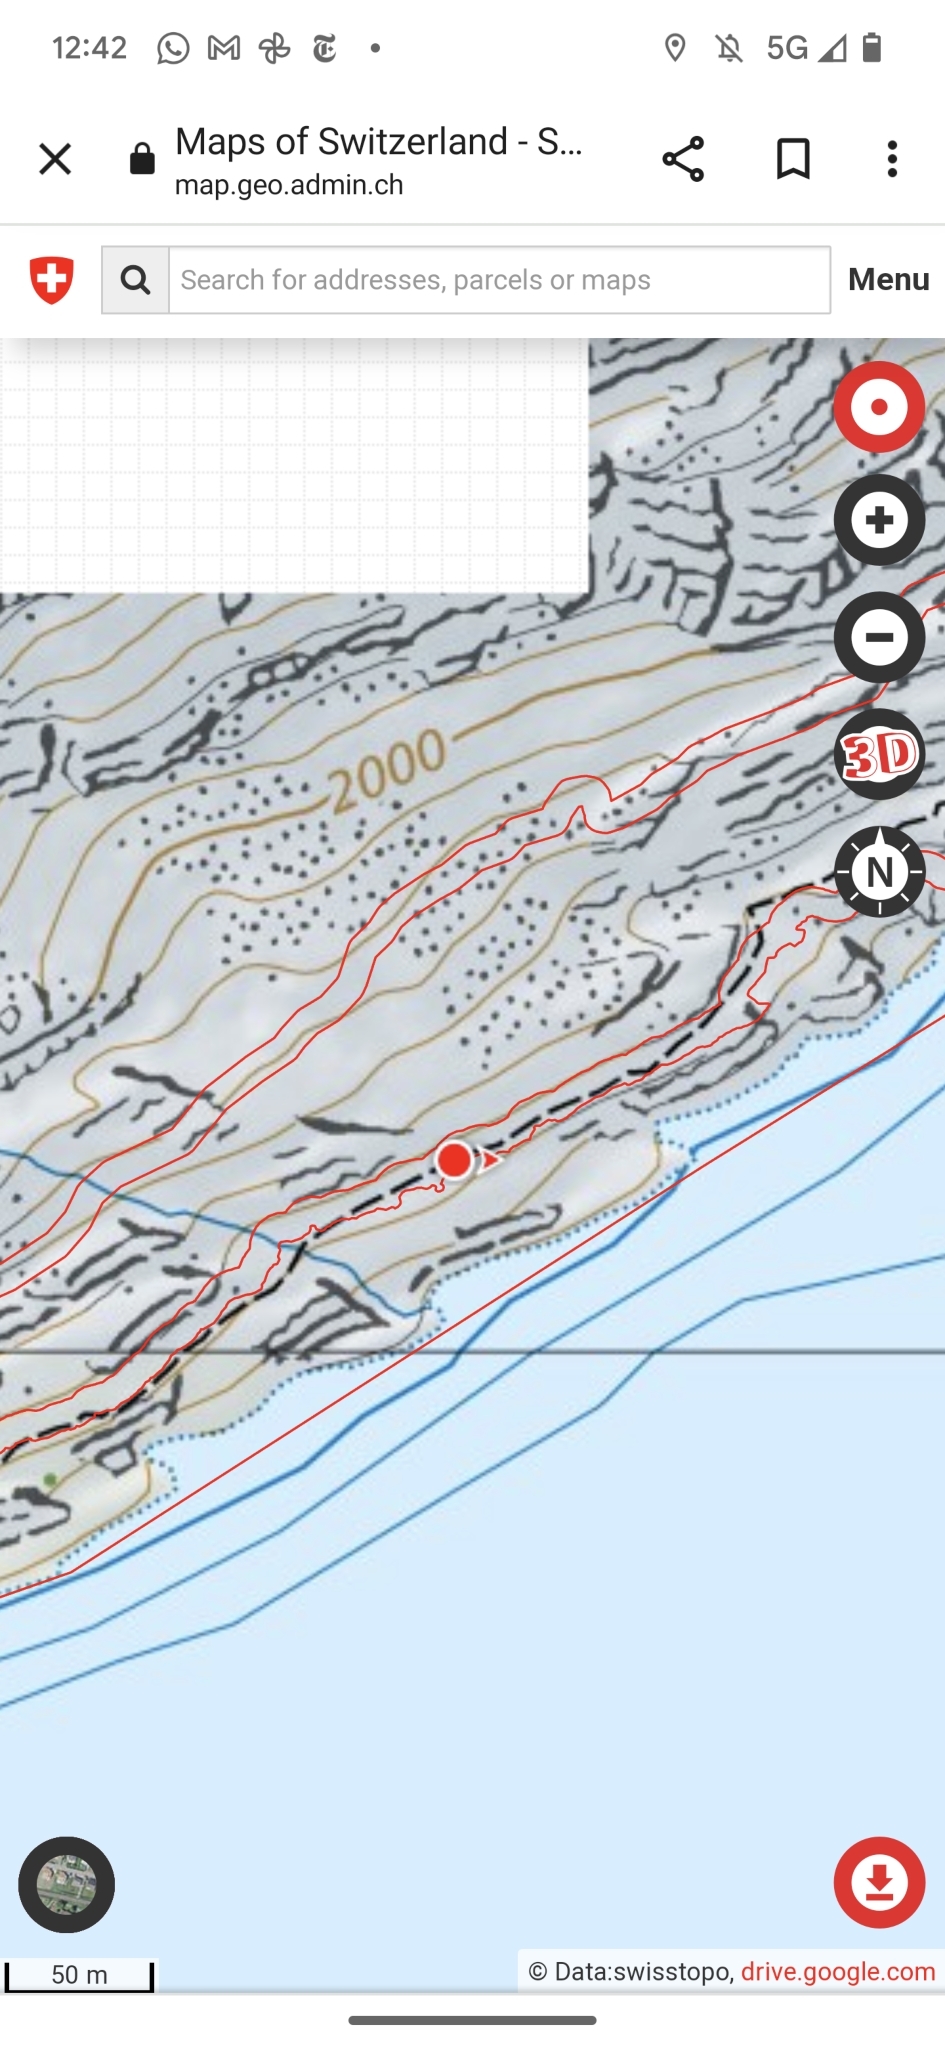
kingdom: Animalia
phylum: Arthropoda
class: Insecta
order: Hymenoptera
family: Formicidae
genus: Formica
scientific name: Formica
